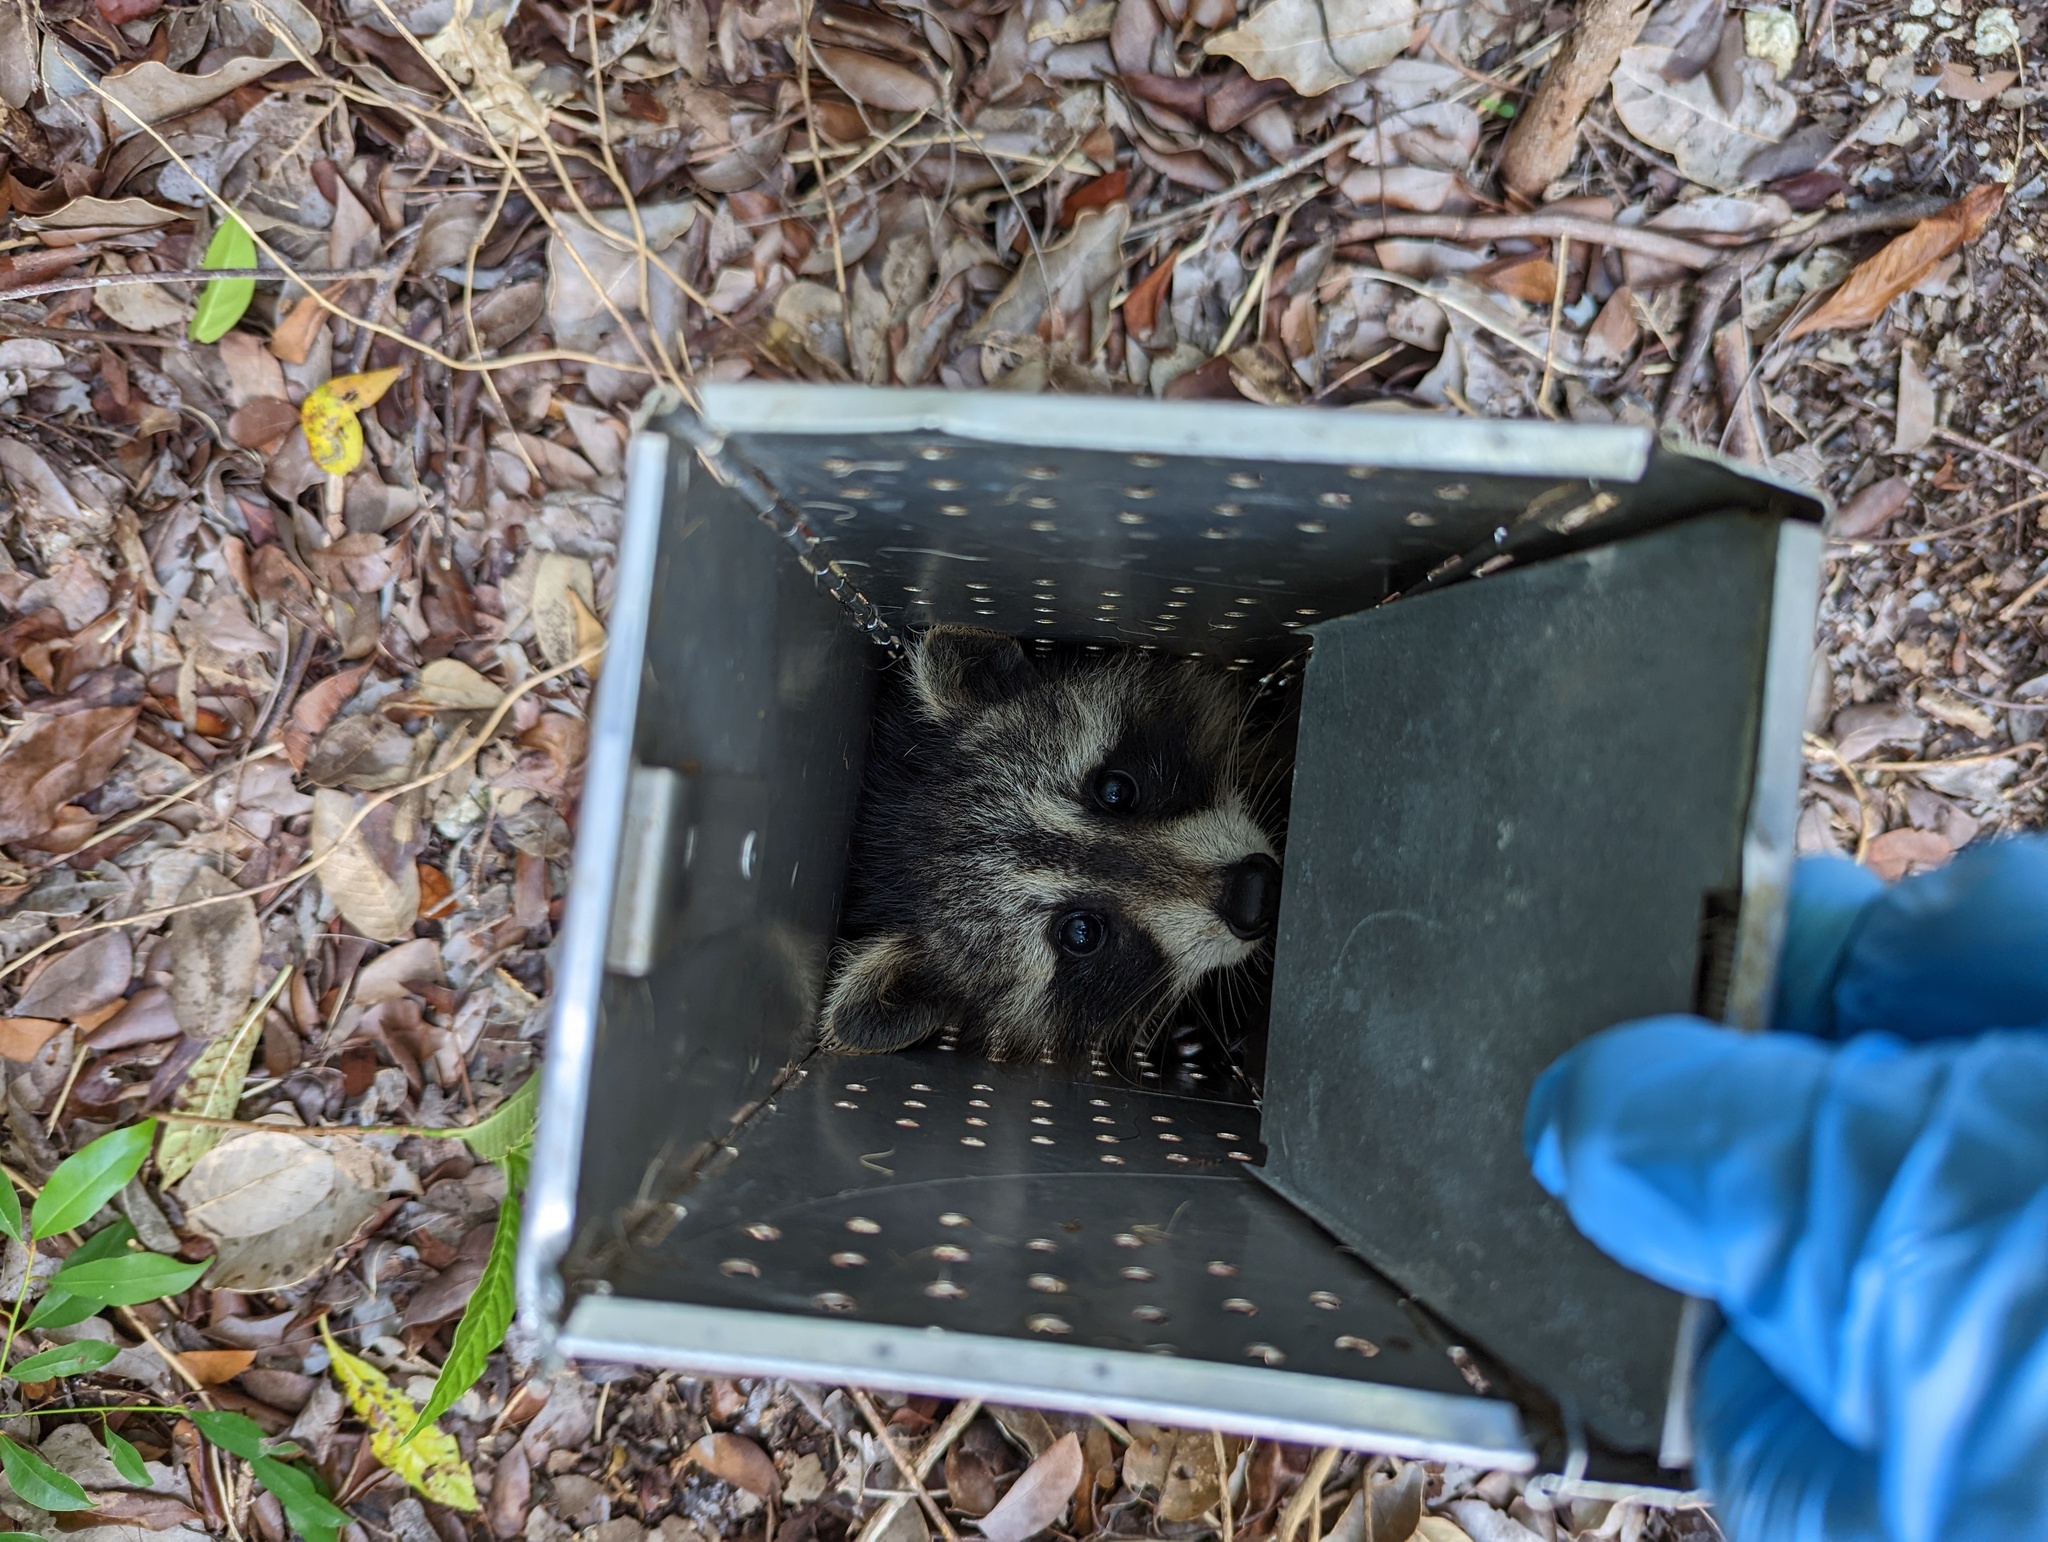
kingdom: Animalia
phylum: Chordata
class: Mammalia
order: Carnivora
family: Procyonidae
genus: Procyon
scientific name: Procyon lotor
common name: Raccoon
